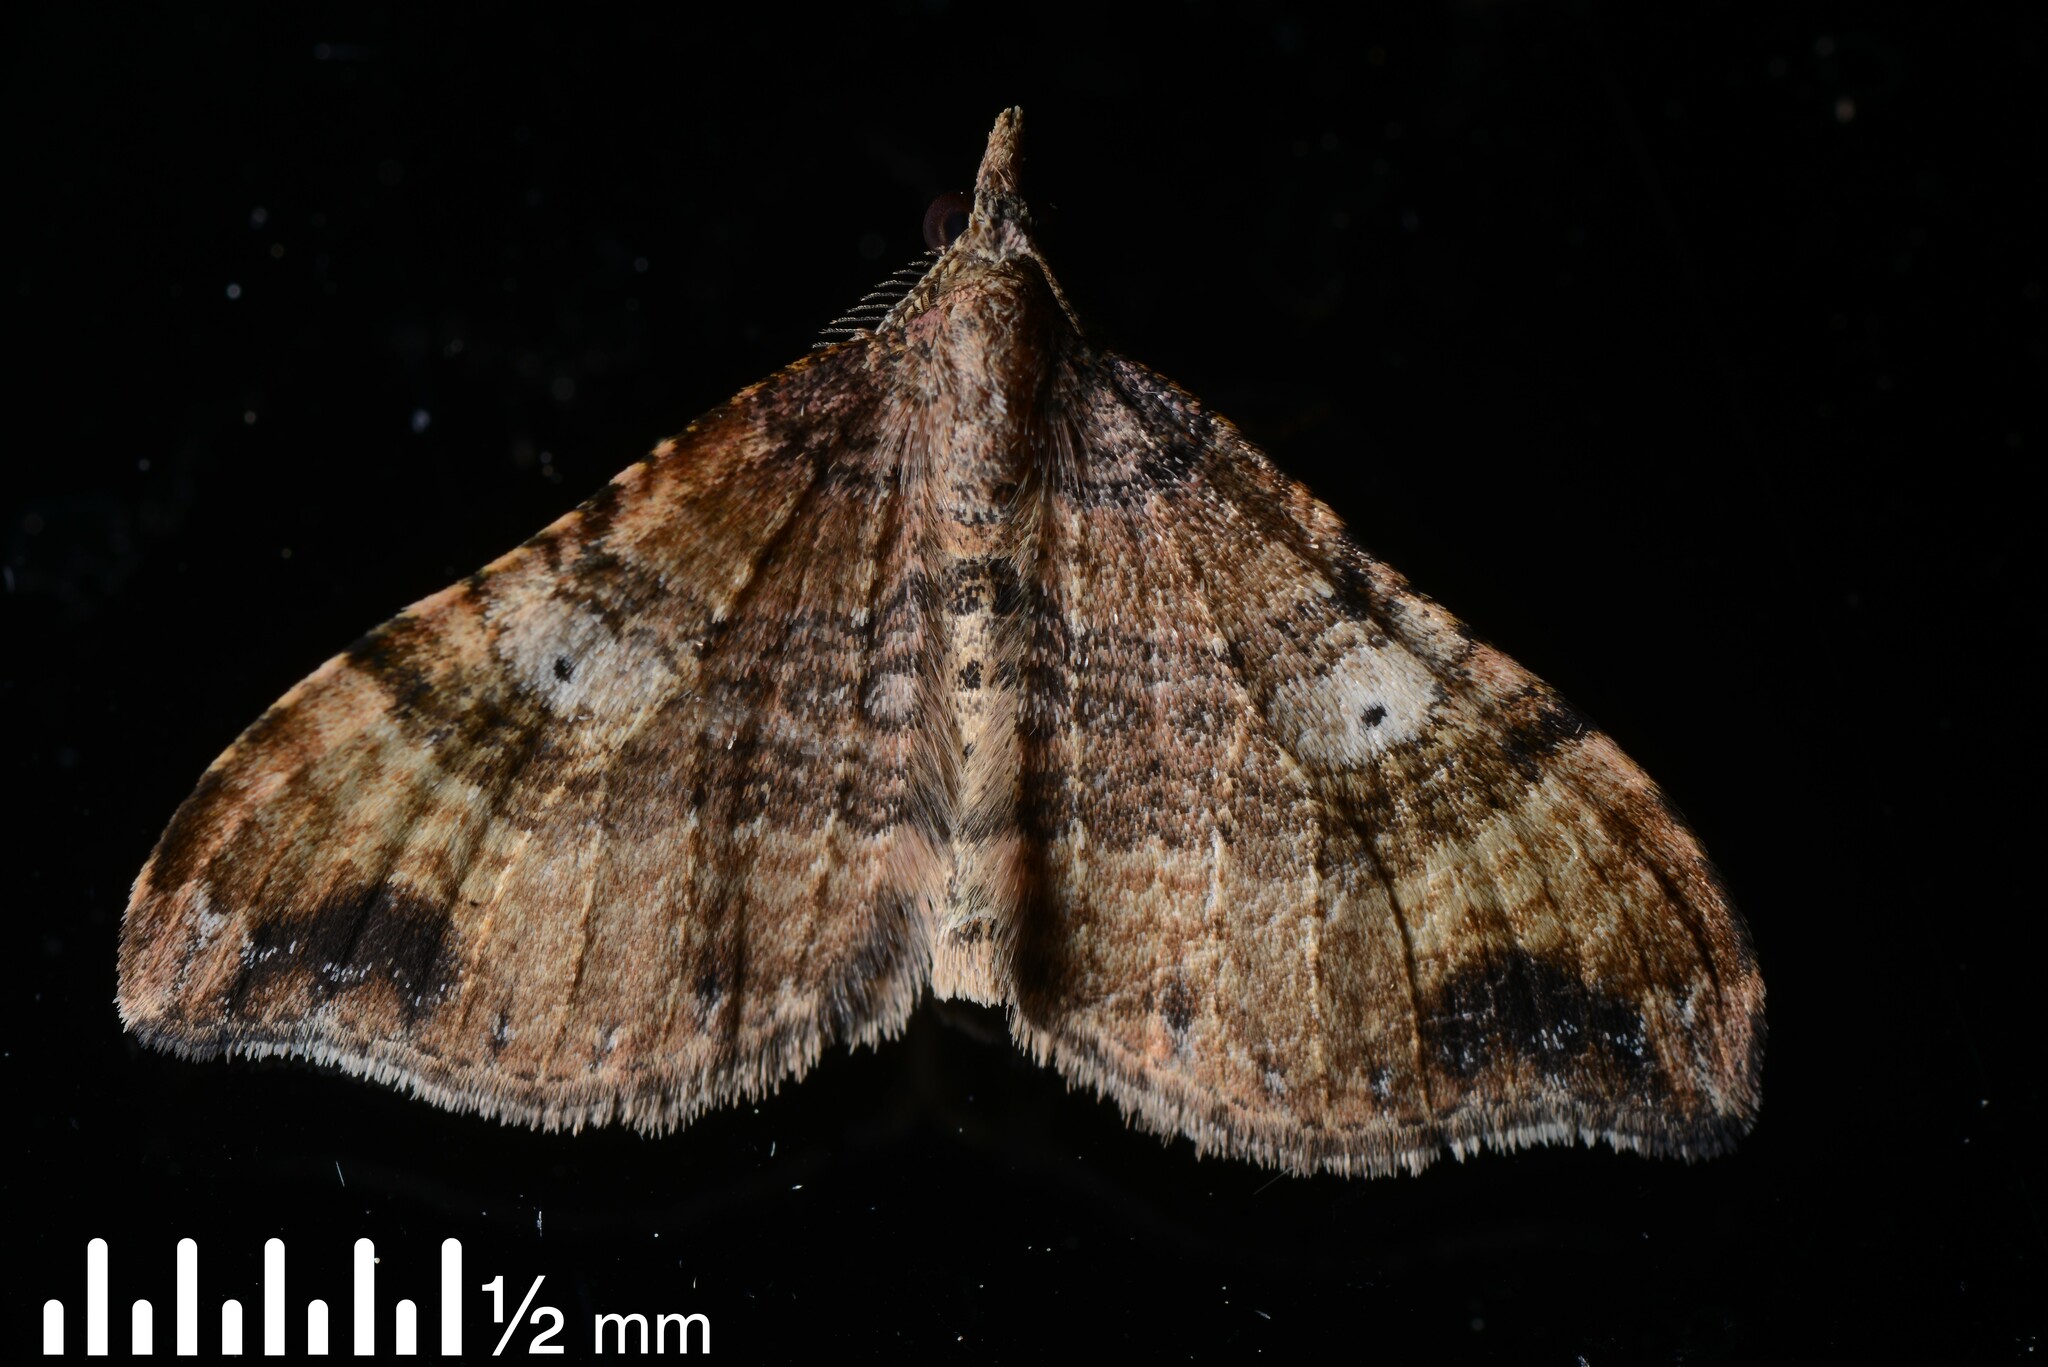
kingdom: Animalia
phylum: Arthropoda
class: Insecta
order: Lepidoptera
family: Geometridae
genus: Homodotis
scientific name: Homodotis megaspilata
